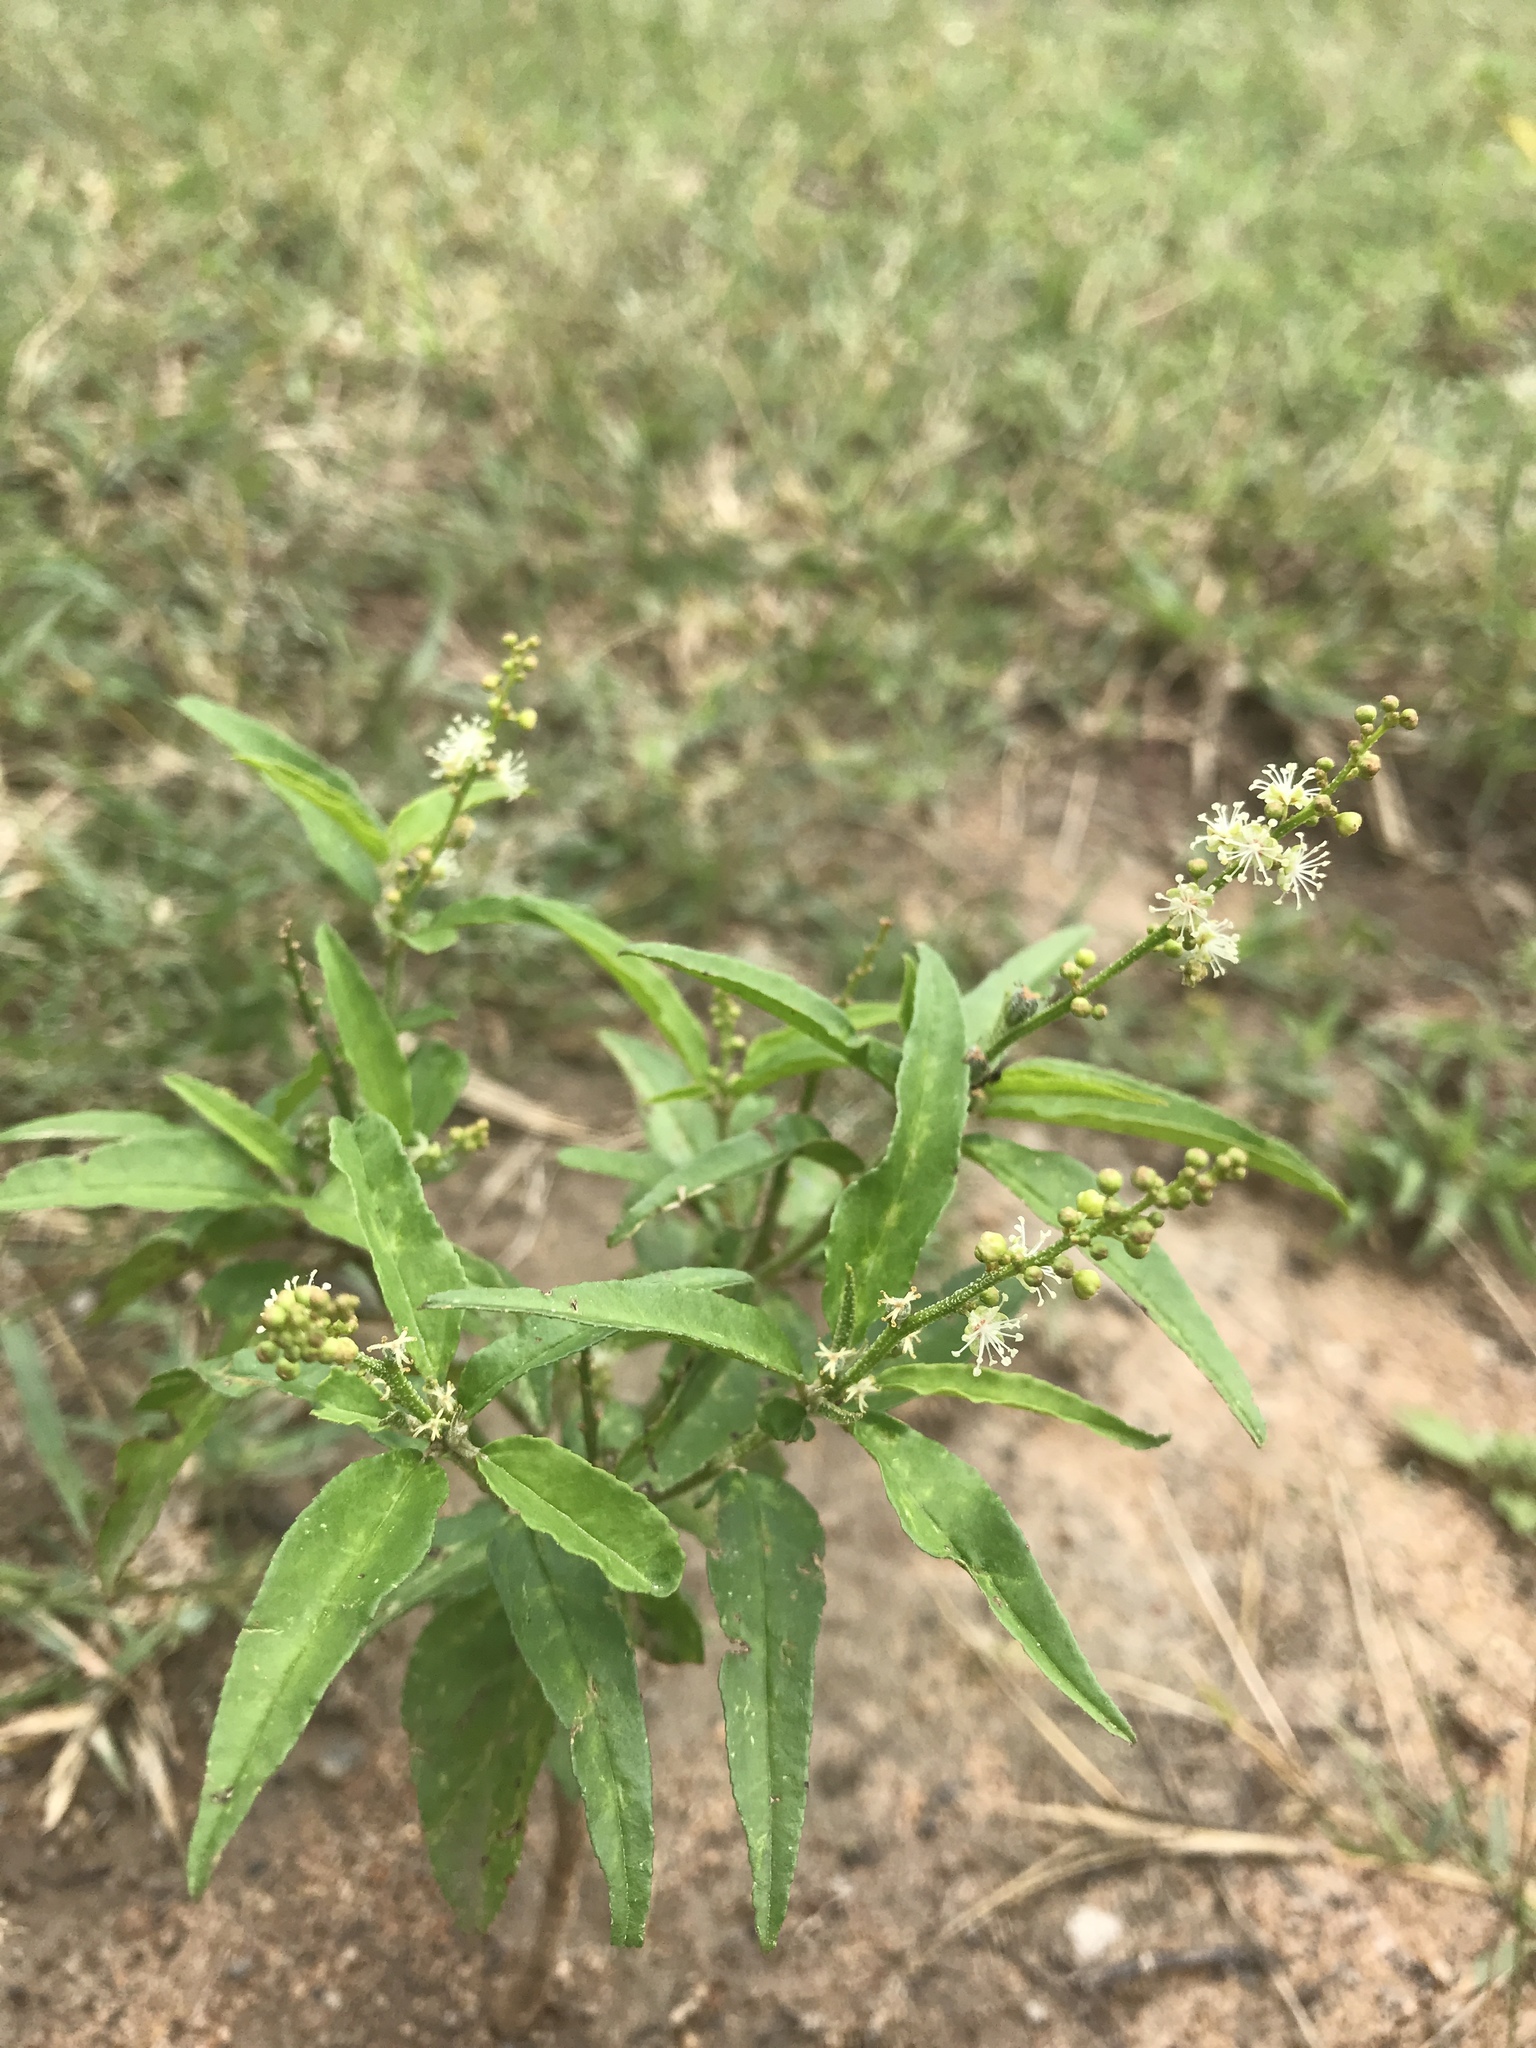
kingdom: Plantae
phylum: Tracheophyta
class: Magnoliopsida
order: Malpighiales
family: Euphorbiaceae
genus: Croton
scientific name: Croton bonplandianus
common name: Bonpland's croton
